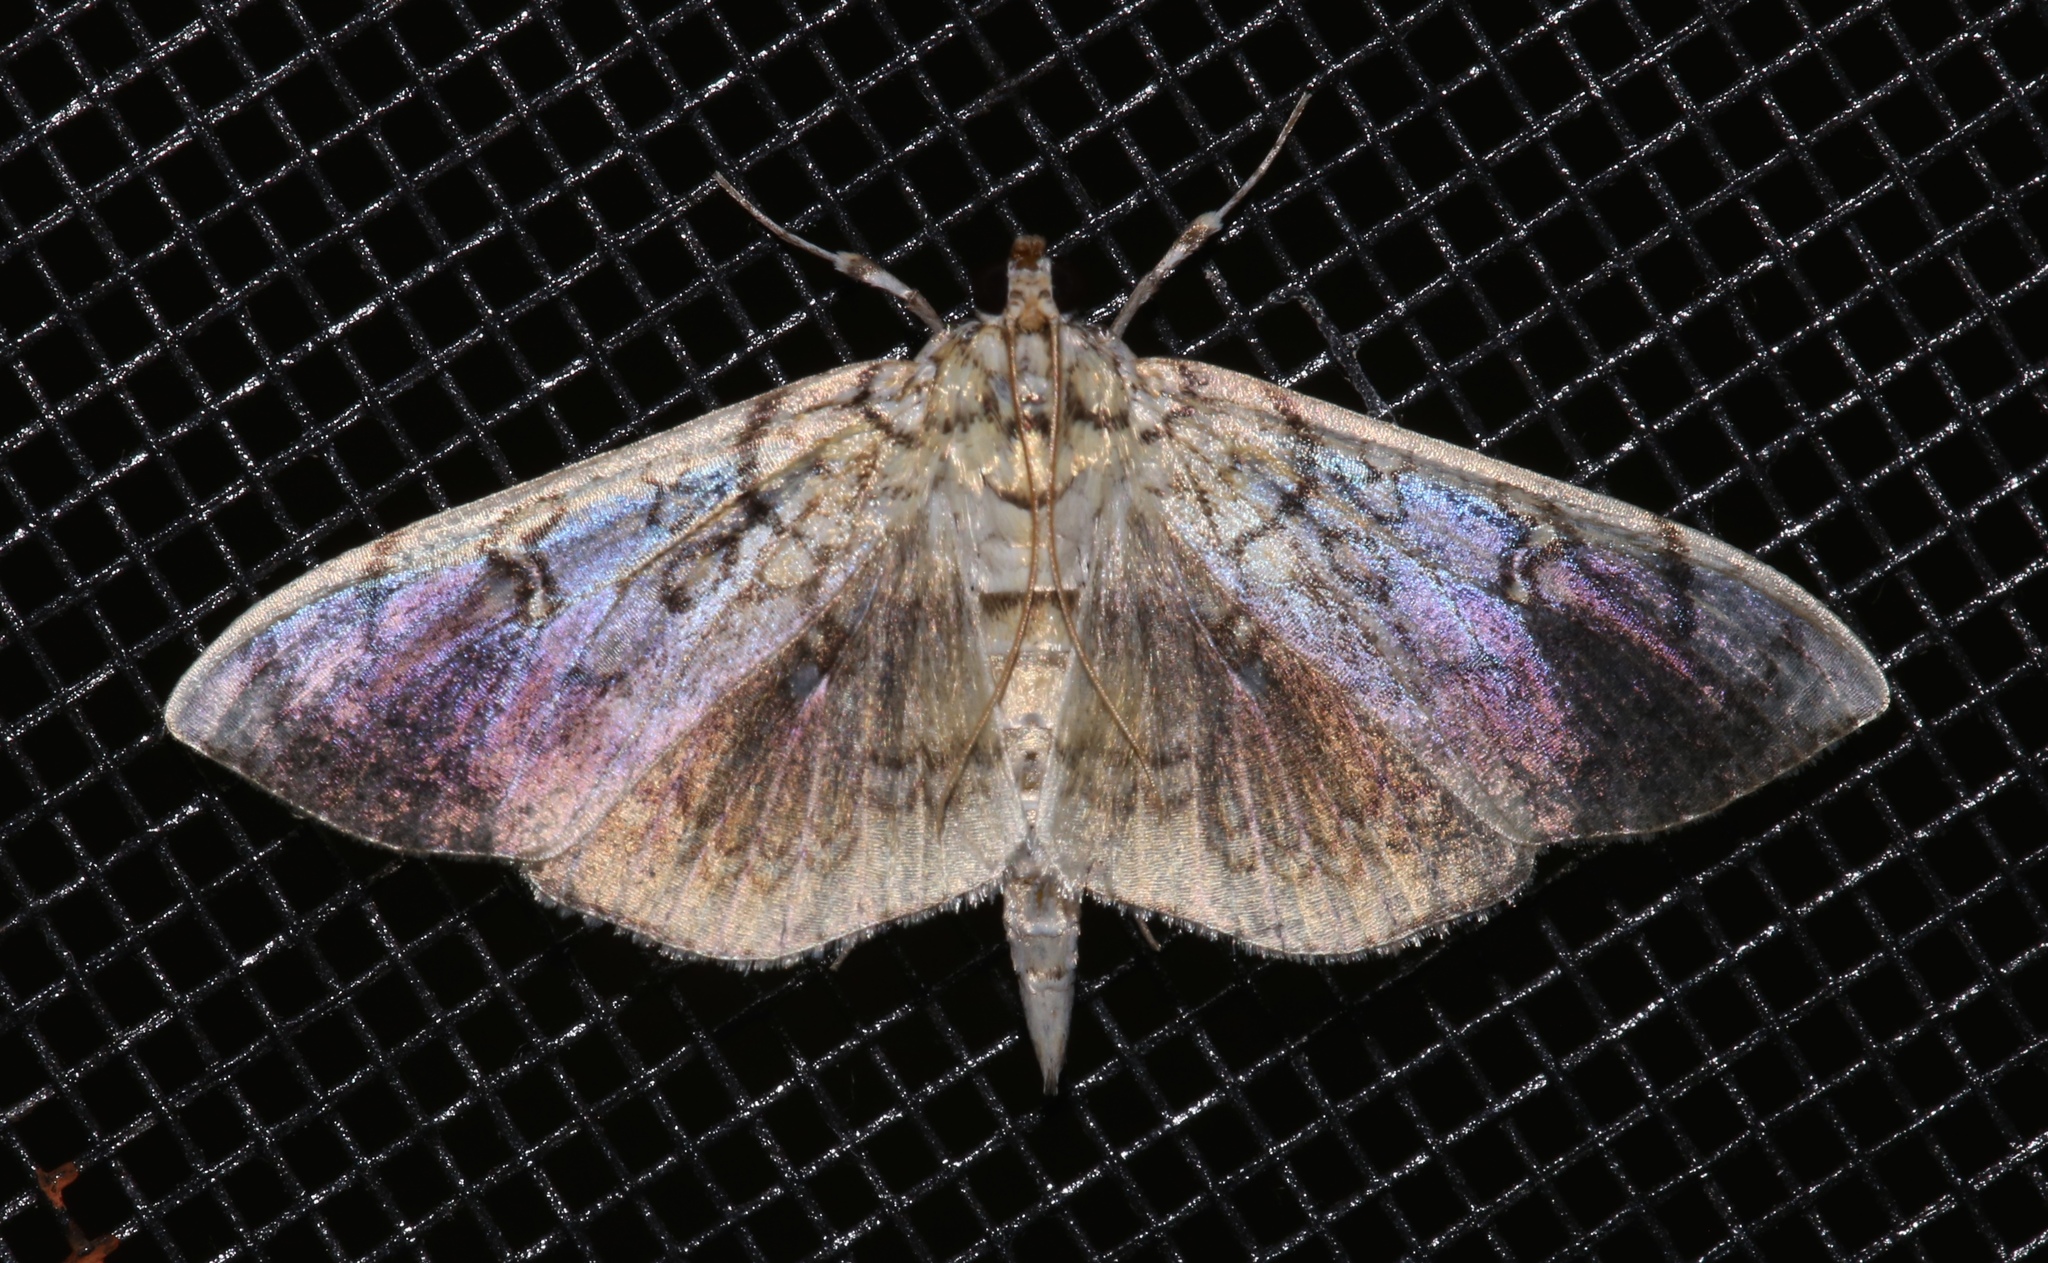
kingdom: Animalia
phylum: Arthropoda
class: Insecta
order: Lepidoptera
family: Crambidae
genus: Pantographa
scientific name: Pantographa limata
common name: Basswood leafroller moth
